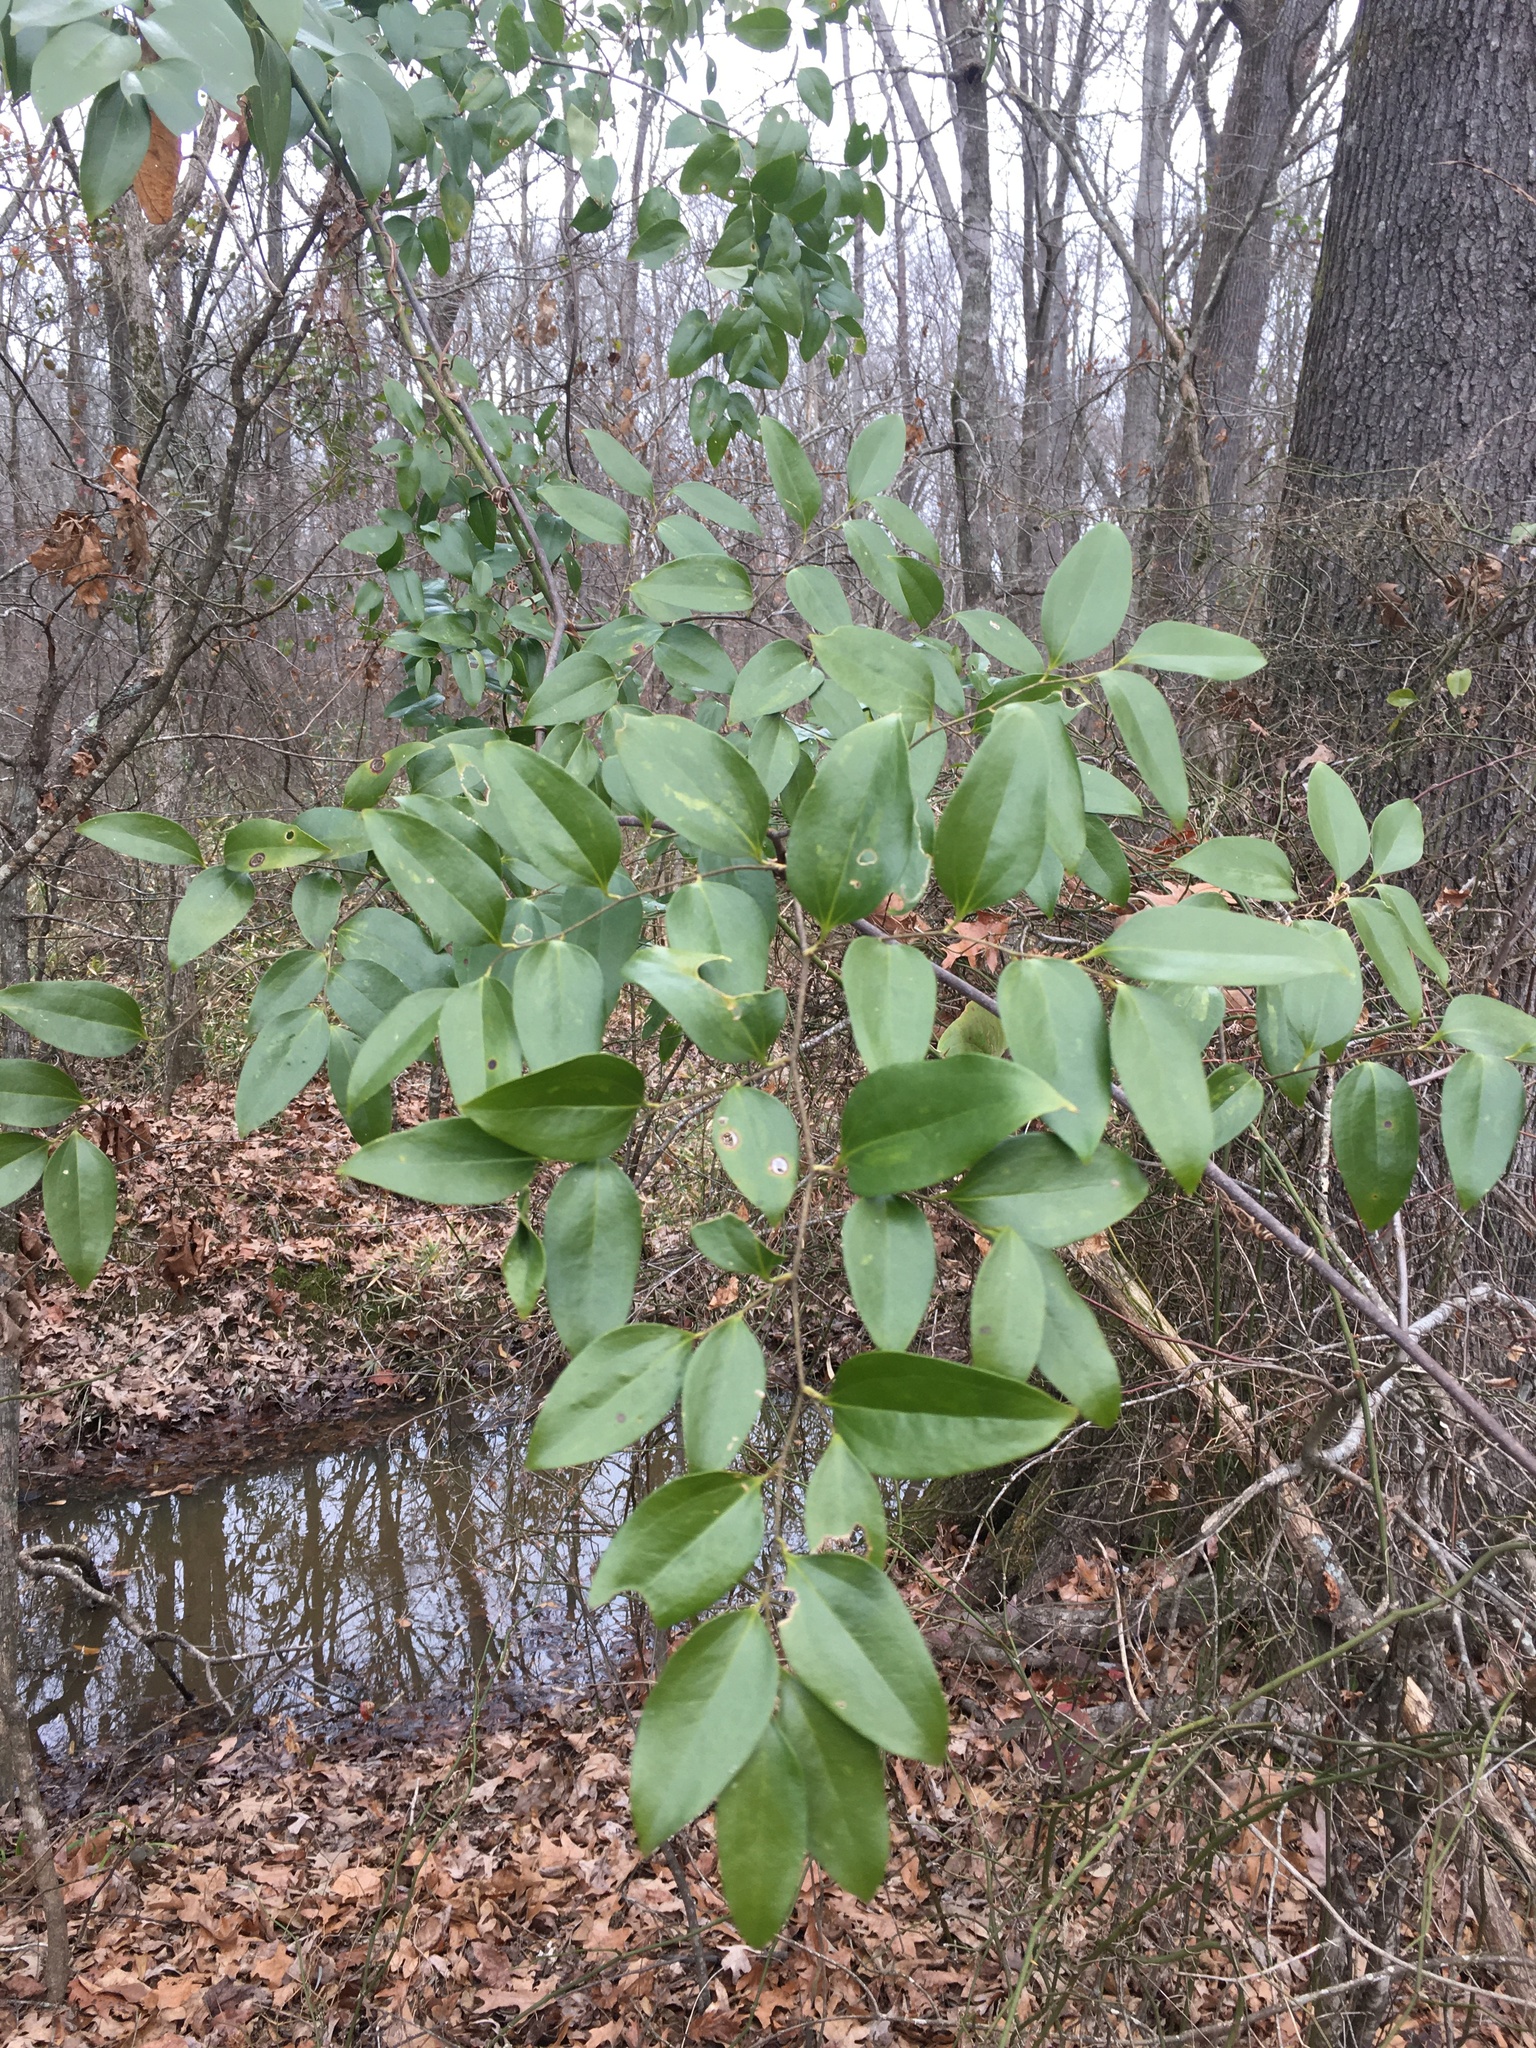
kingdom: Plantae
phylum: Tracheophyta
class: Liliopsida
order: Liliales
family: Smilacaceae
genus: Smilax
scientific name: Smilax maritima
